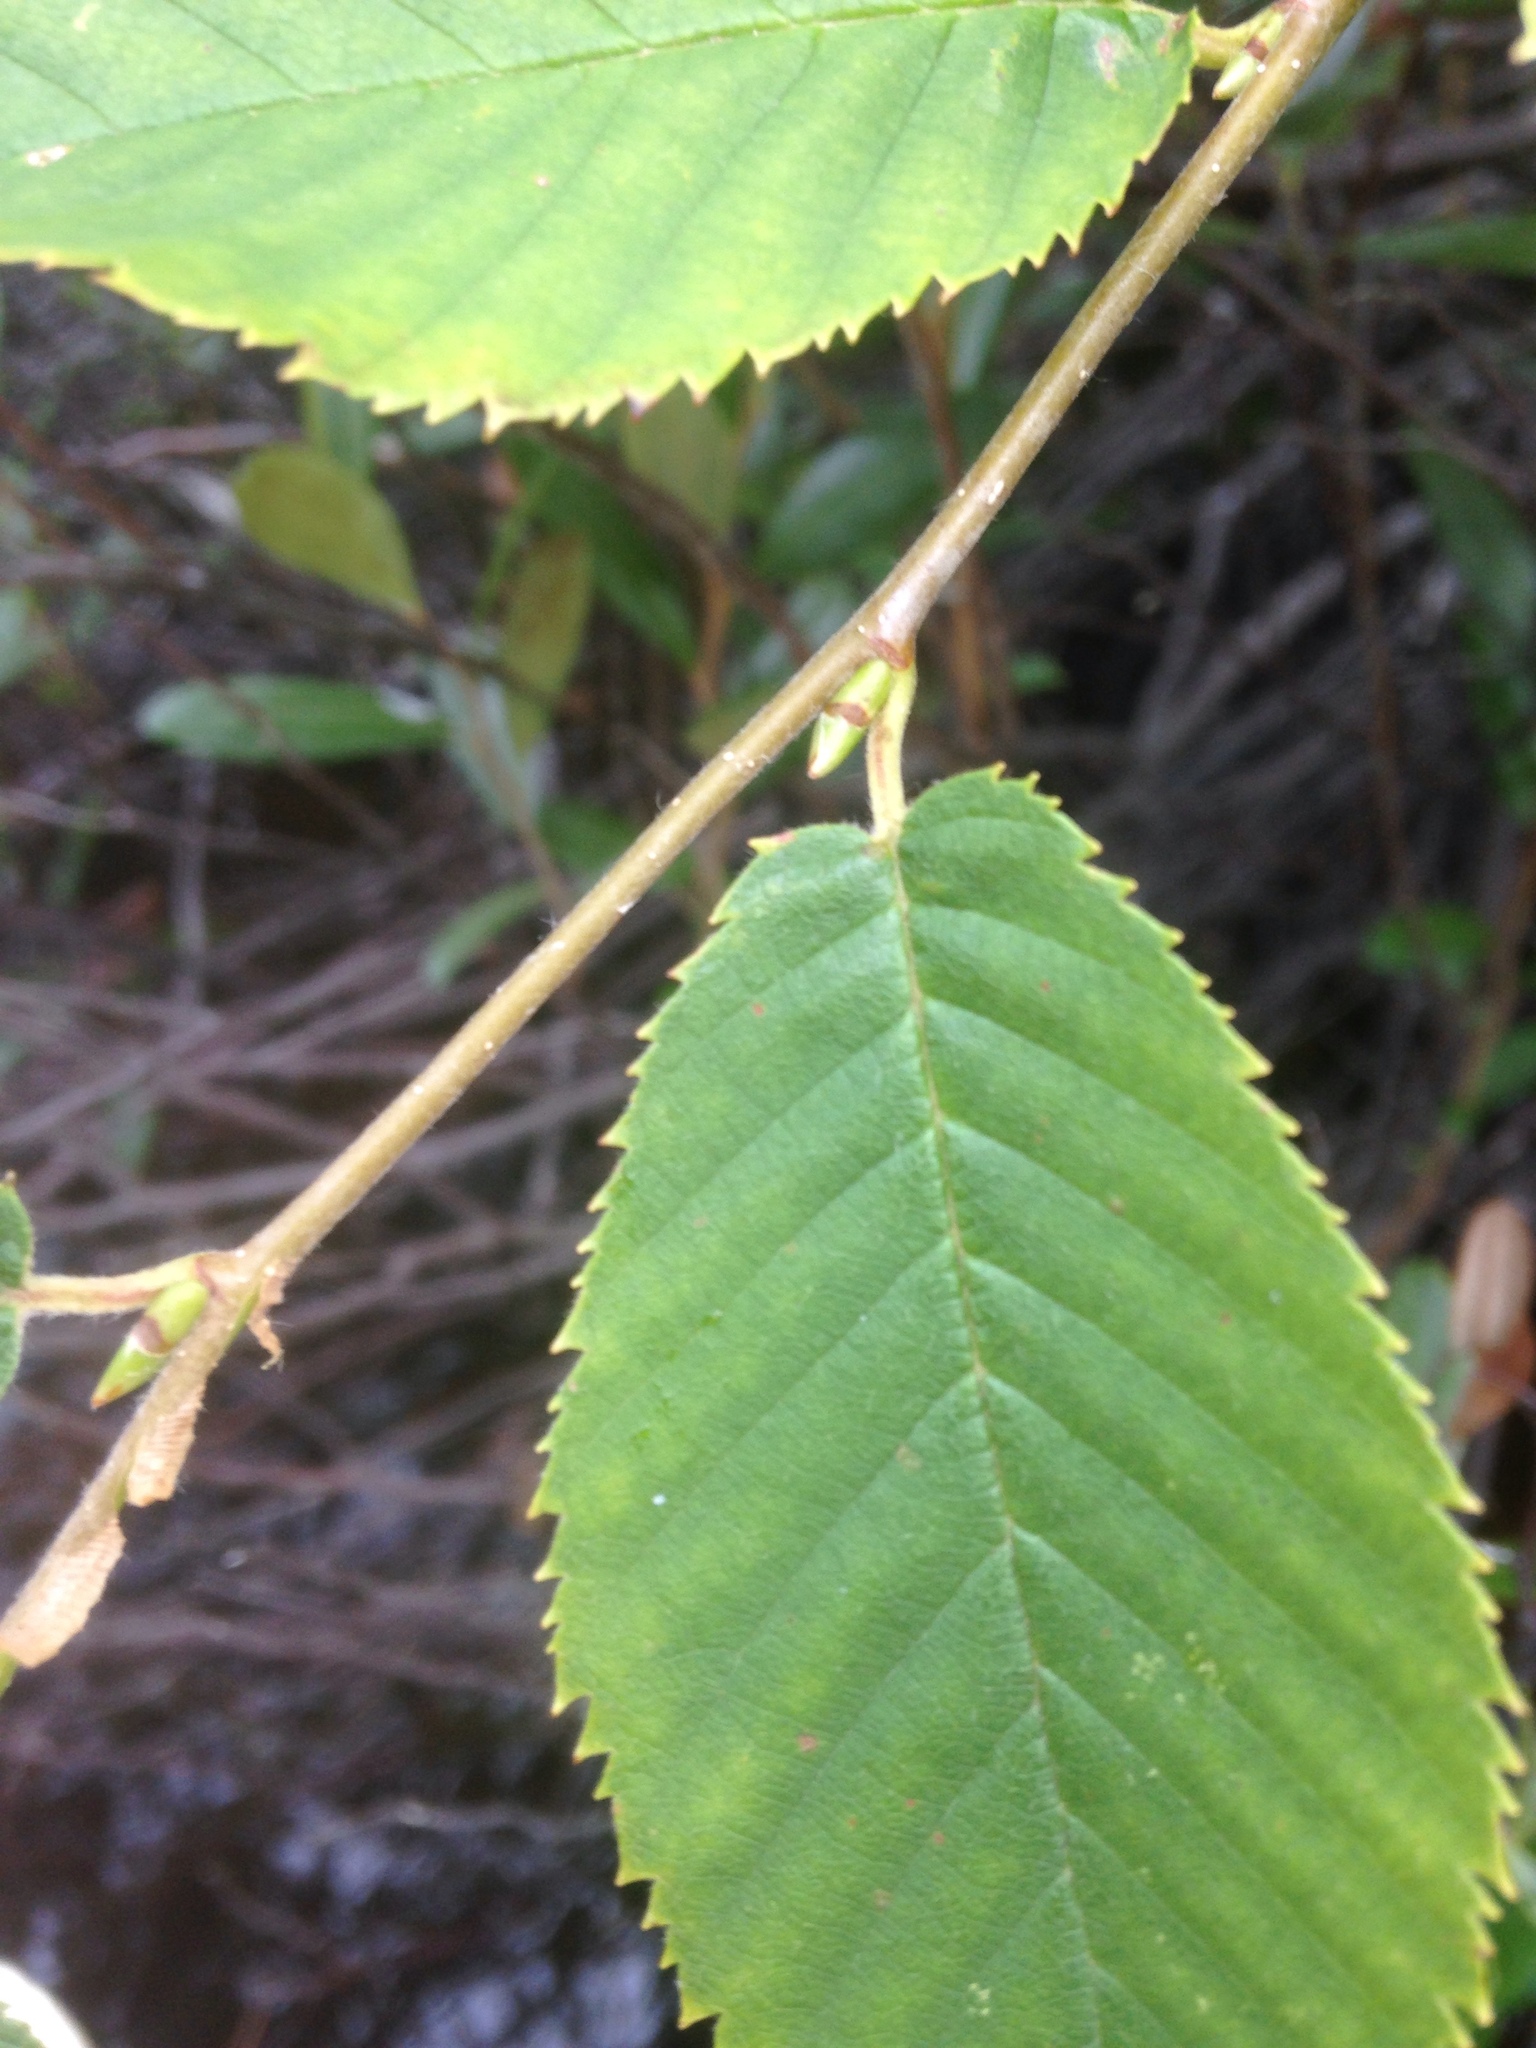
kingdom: Plantae
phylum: Tracheophyta
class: Magnoliopsida
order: Fagales
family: Betulaceae
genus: Betula
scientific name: Betula alleghaniensis
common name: Yellow birch
